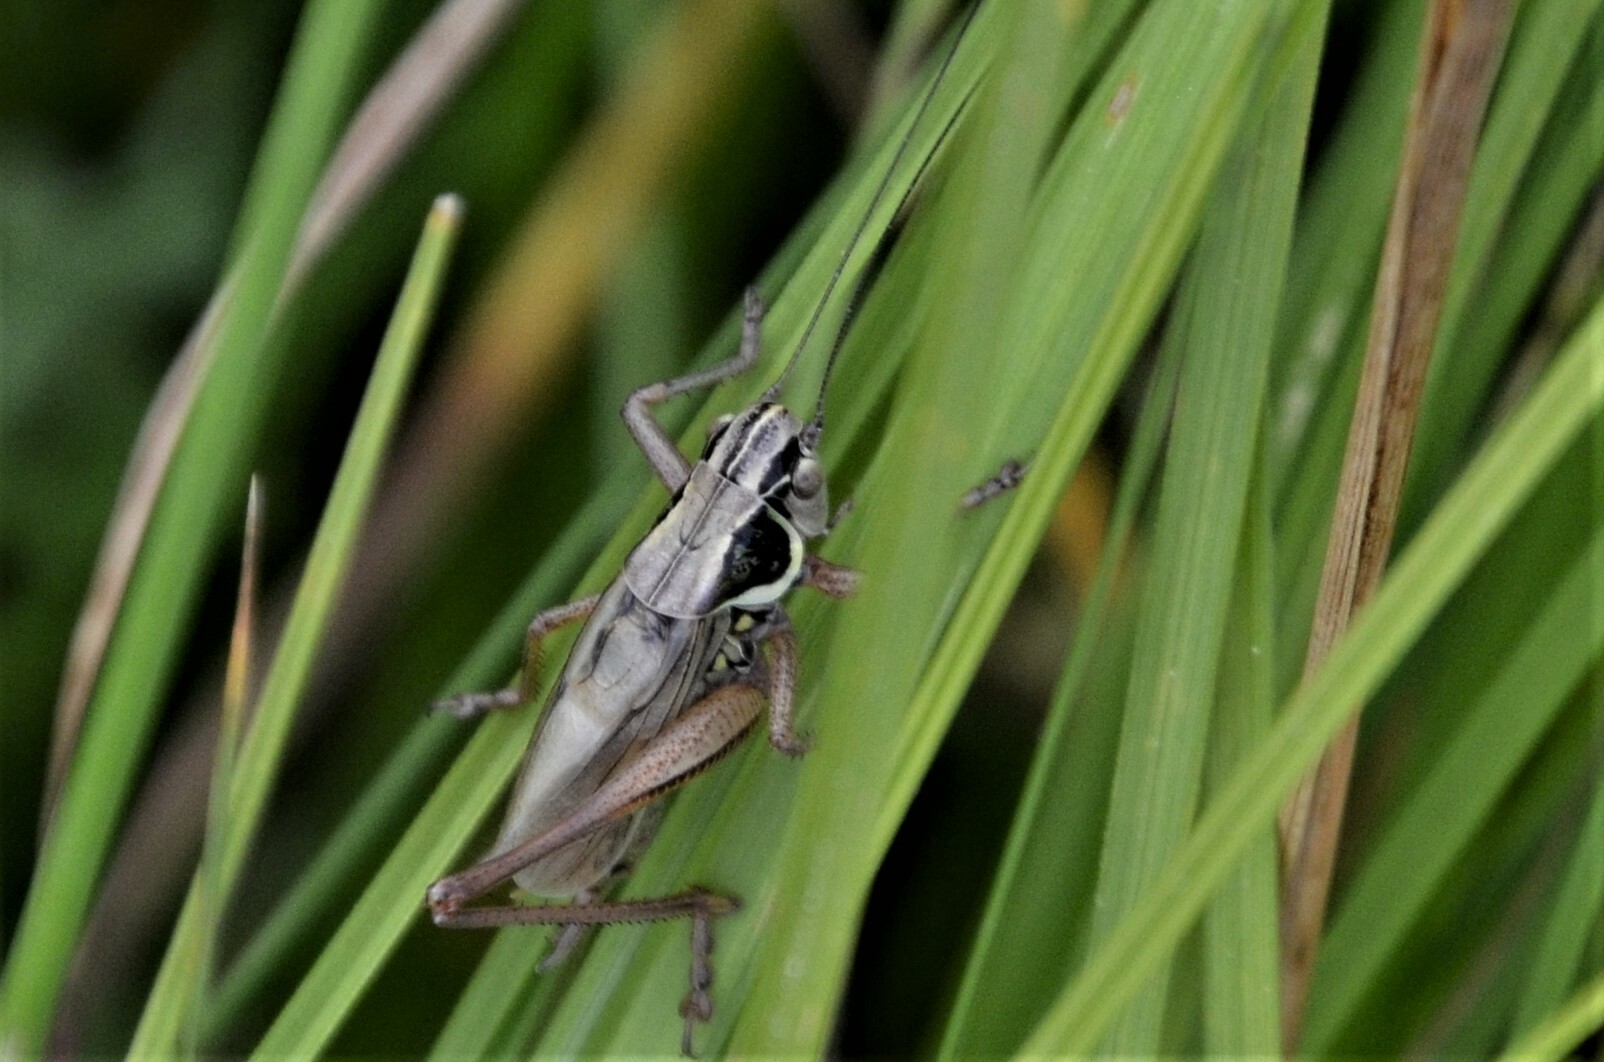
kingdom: Animalia
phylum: Arthropoda
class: Insecta
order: Orthoptera
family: Tettigoniidae
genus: Roeseliana
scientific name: Roeseliana roeselii
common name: Roesel's bush cricket
